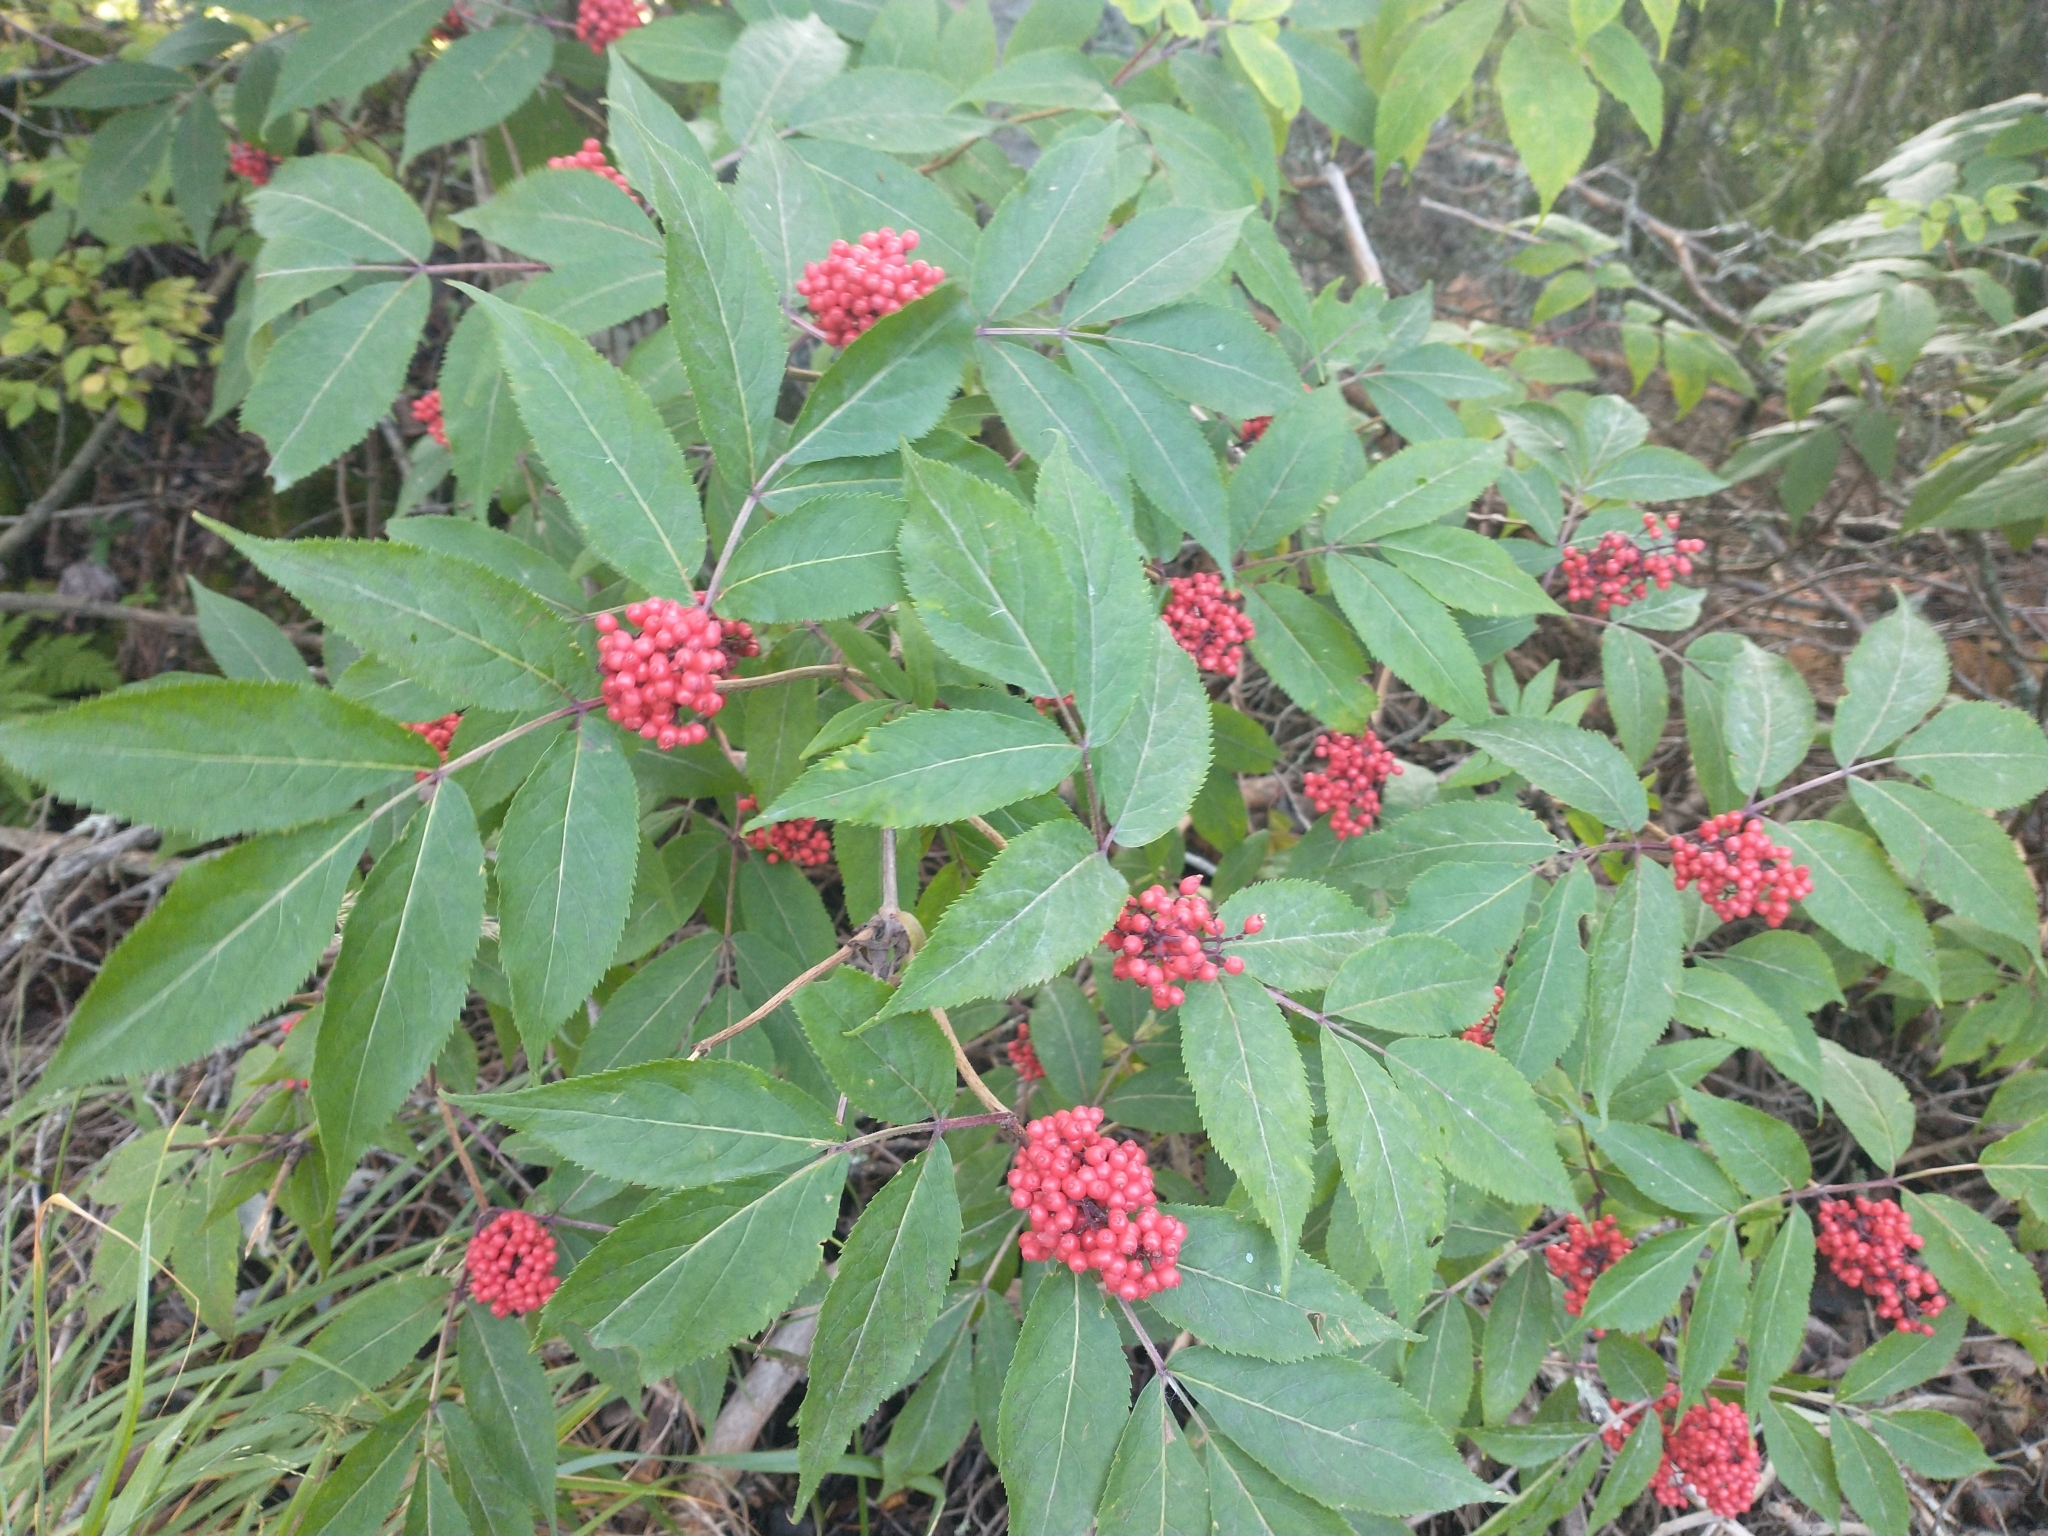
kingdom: Plantae
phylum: Tracheophyta
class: Magnoliopsida
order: Dipsacales
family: Viburnaceae
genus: Sambucus
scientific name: Sambucus racemosa
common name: Red-berried elder
